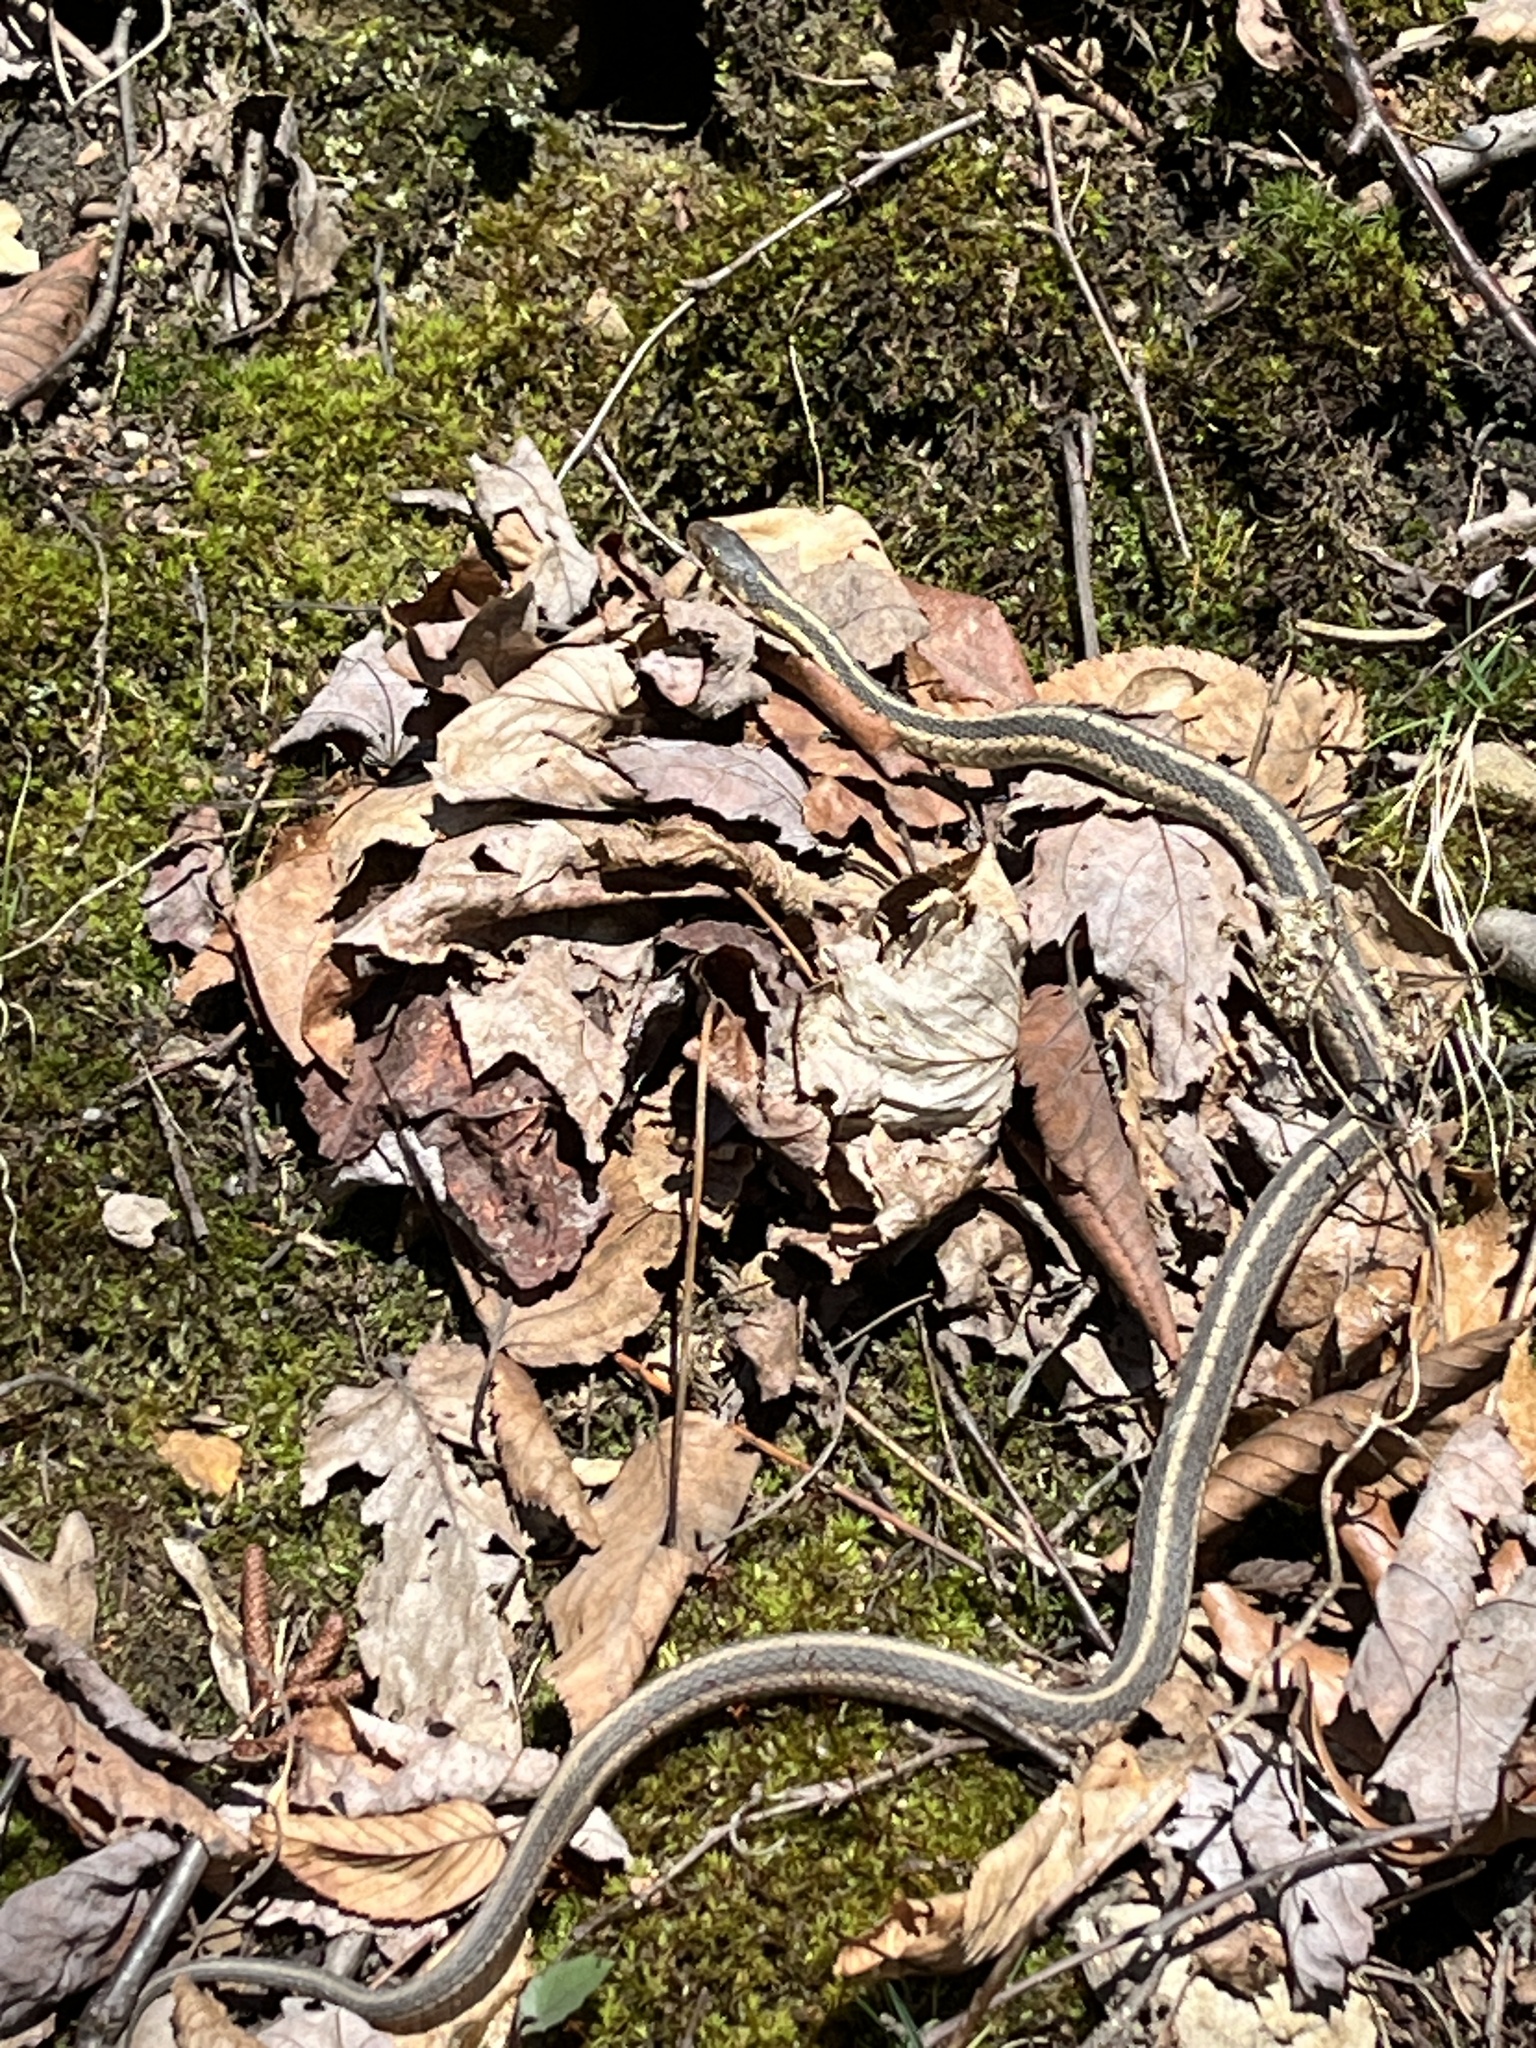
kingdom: Animalia
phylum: Chordata
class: Squamata
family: Colubridae
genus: Thamnophis
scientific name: Thamnophis sirtalis
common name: Common garter snake
